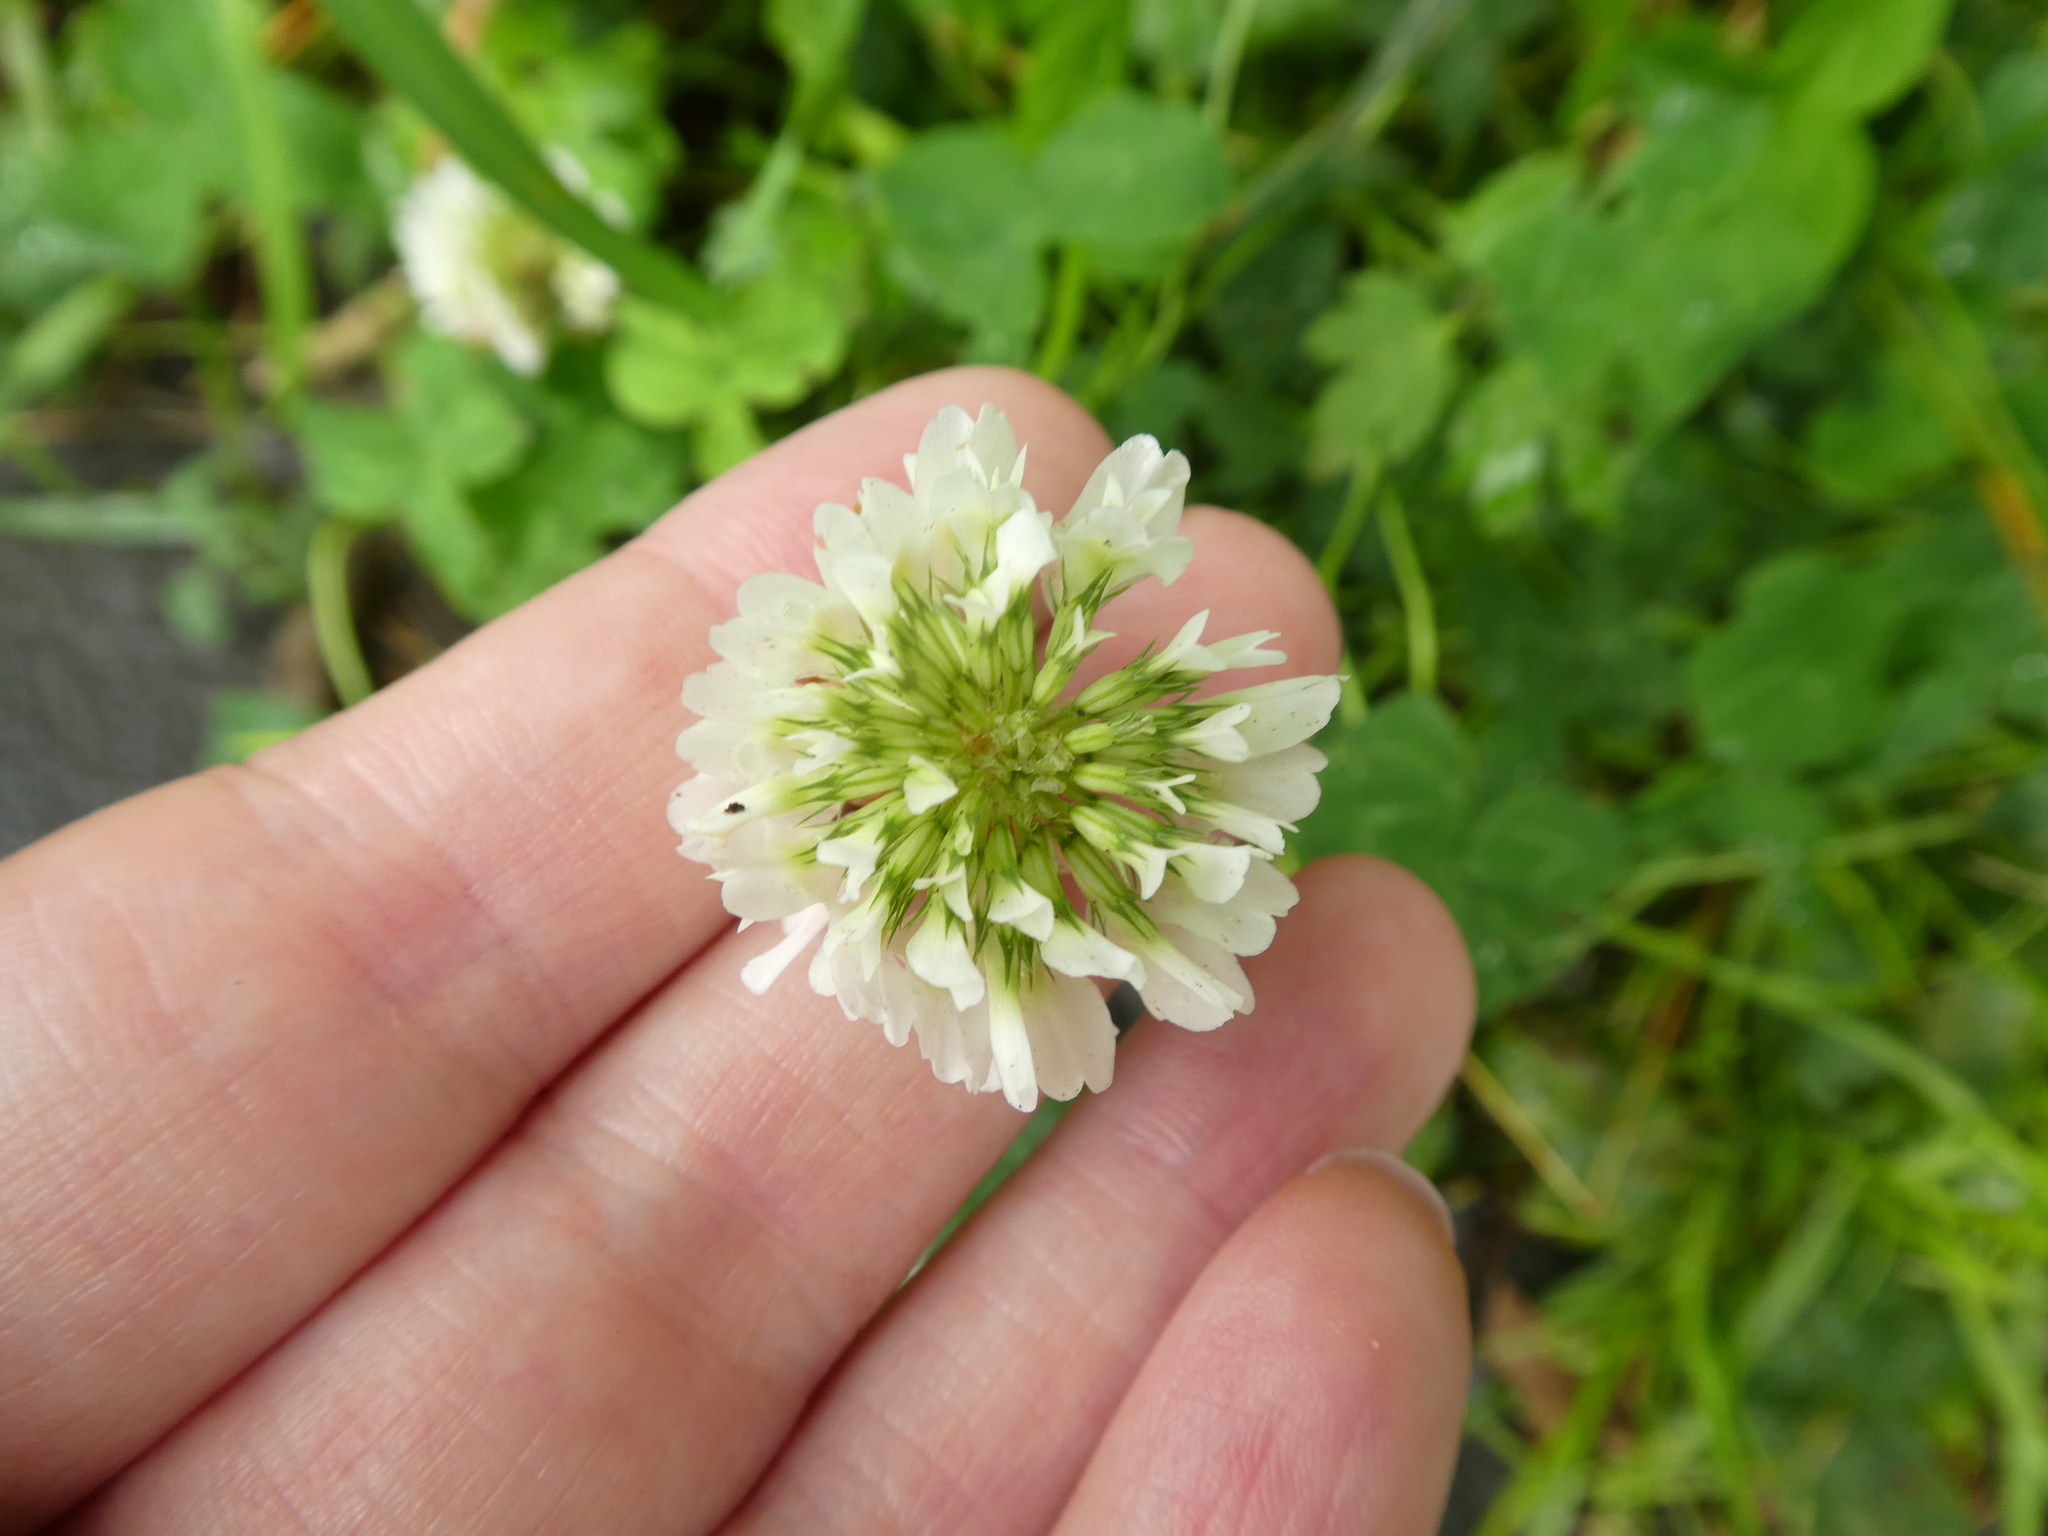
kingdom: Plantae
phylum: Tracheophyta
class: Magnoliopsida
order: Fabales
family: Fabaceae
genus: Trifolium
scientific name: Trifolium repens
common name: White clover
